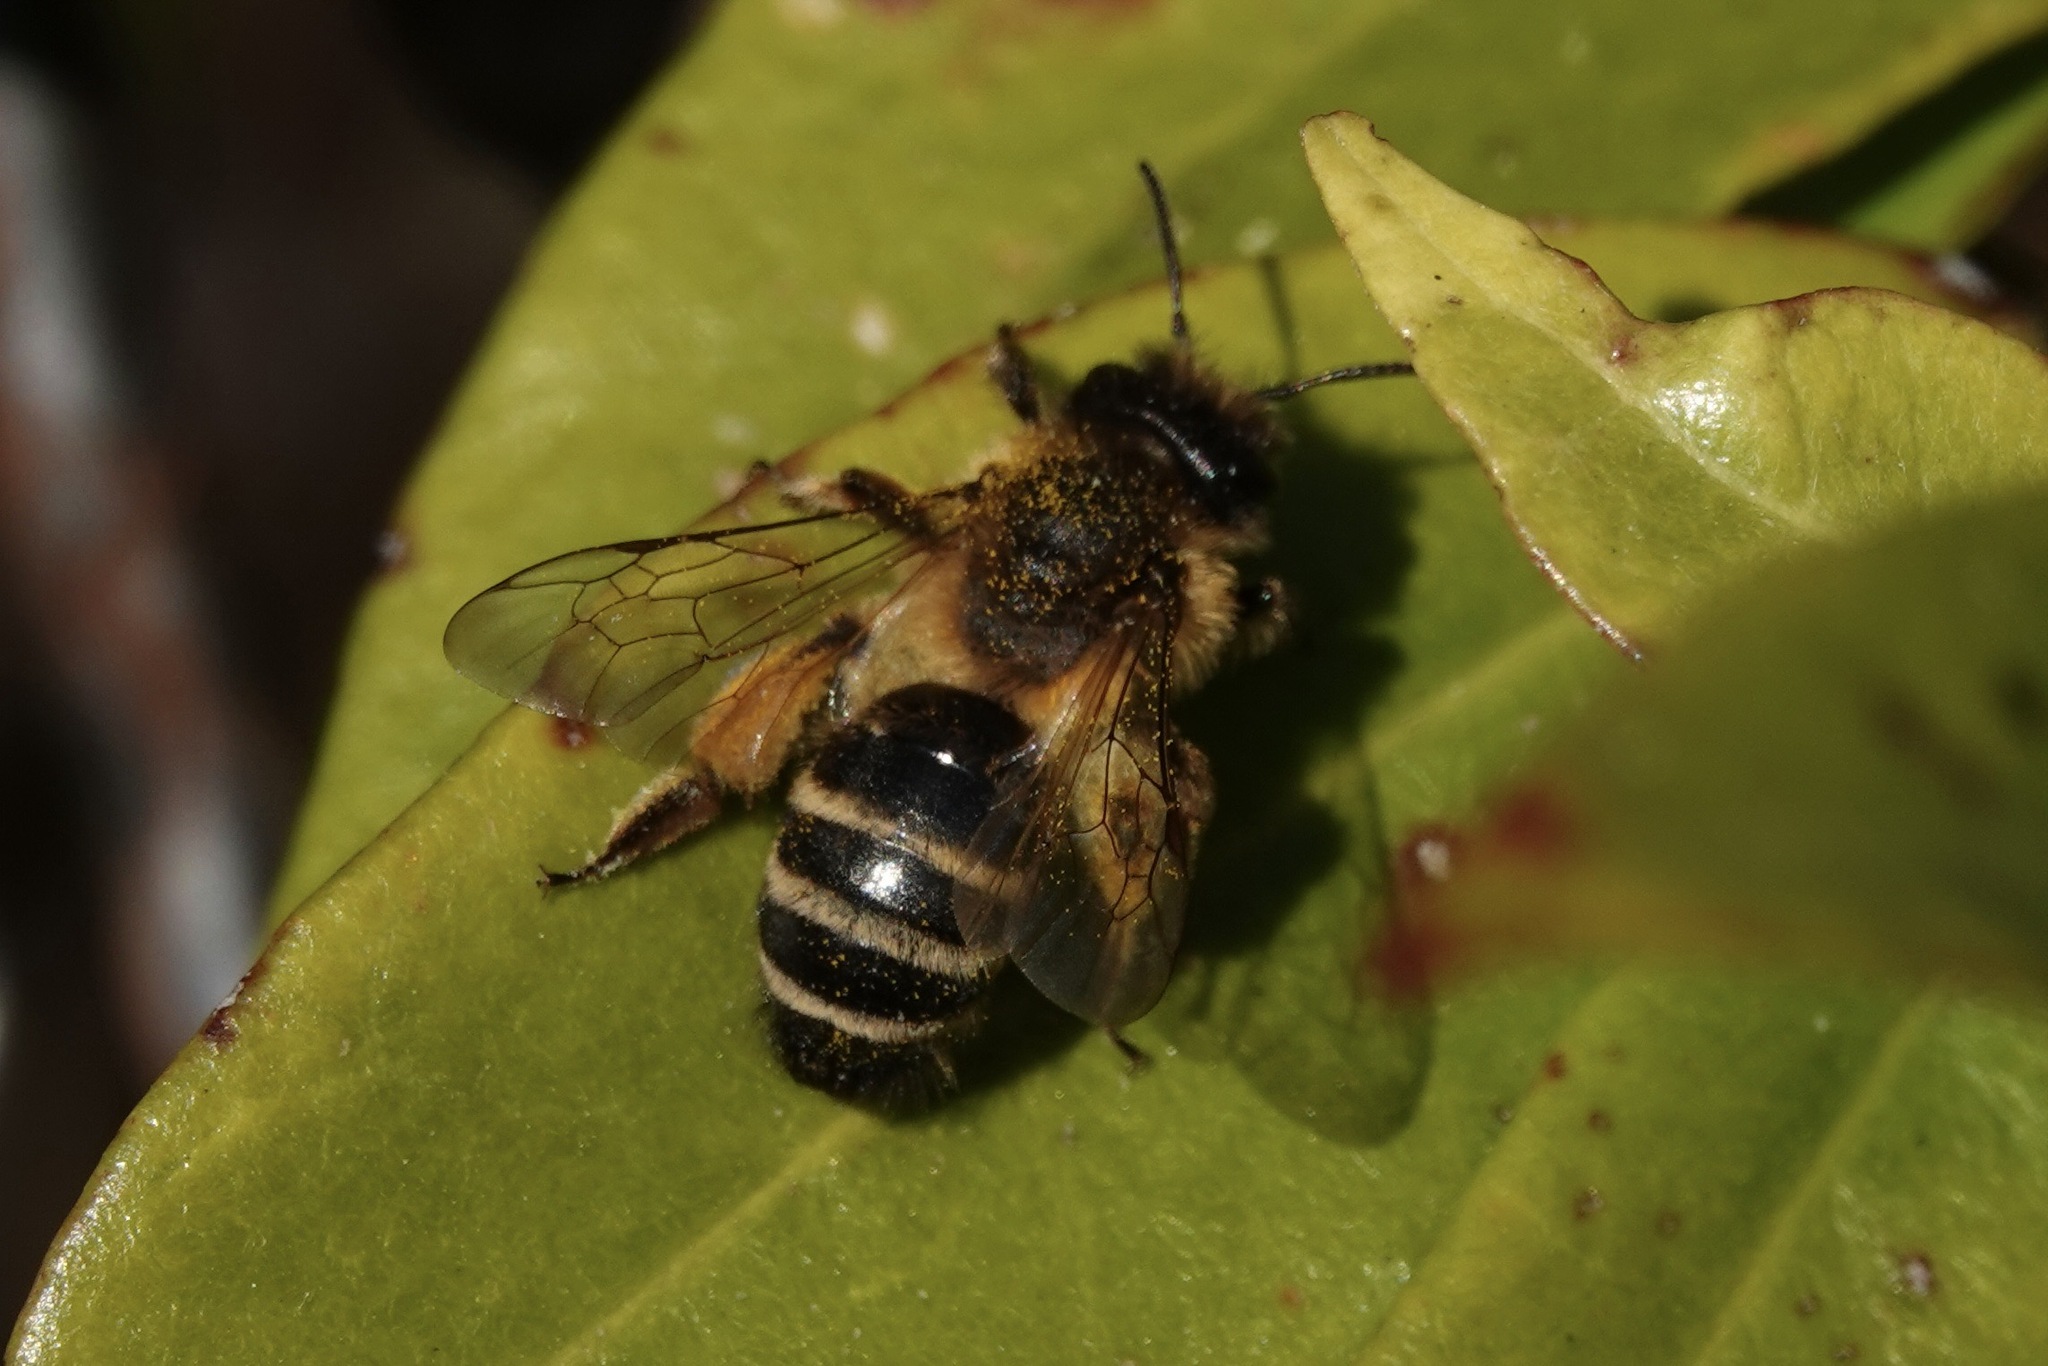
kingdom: Animalia
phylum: Arthropoda
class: Insecta
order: Hymenoptera
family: Andrenidae
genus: Andrena
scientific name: Andrena flavipes
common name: Yellow-legged mining bee
